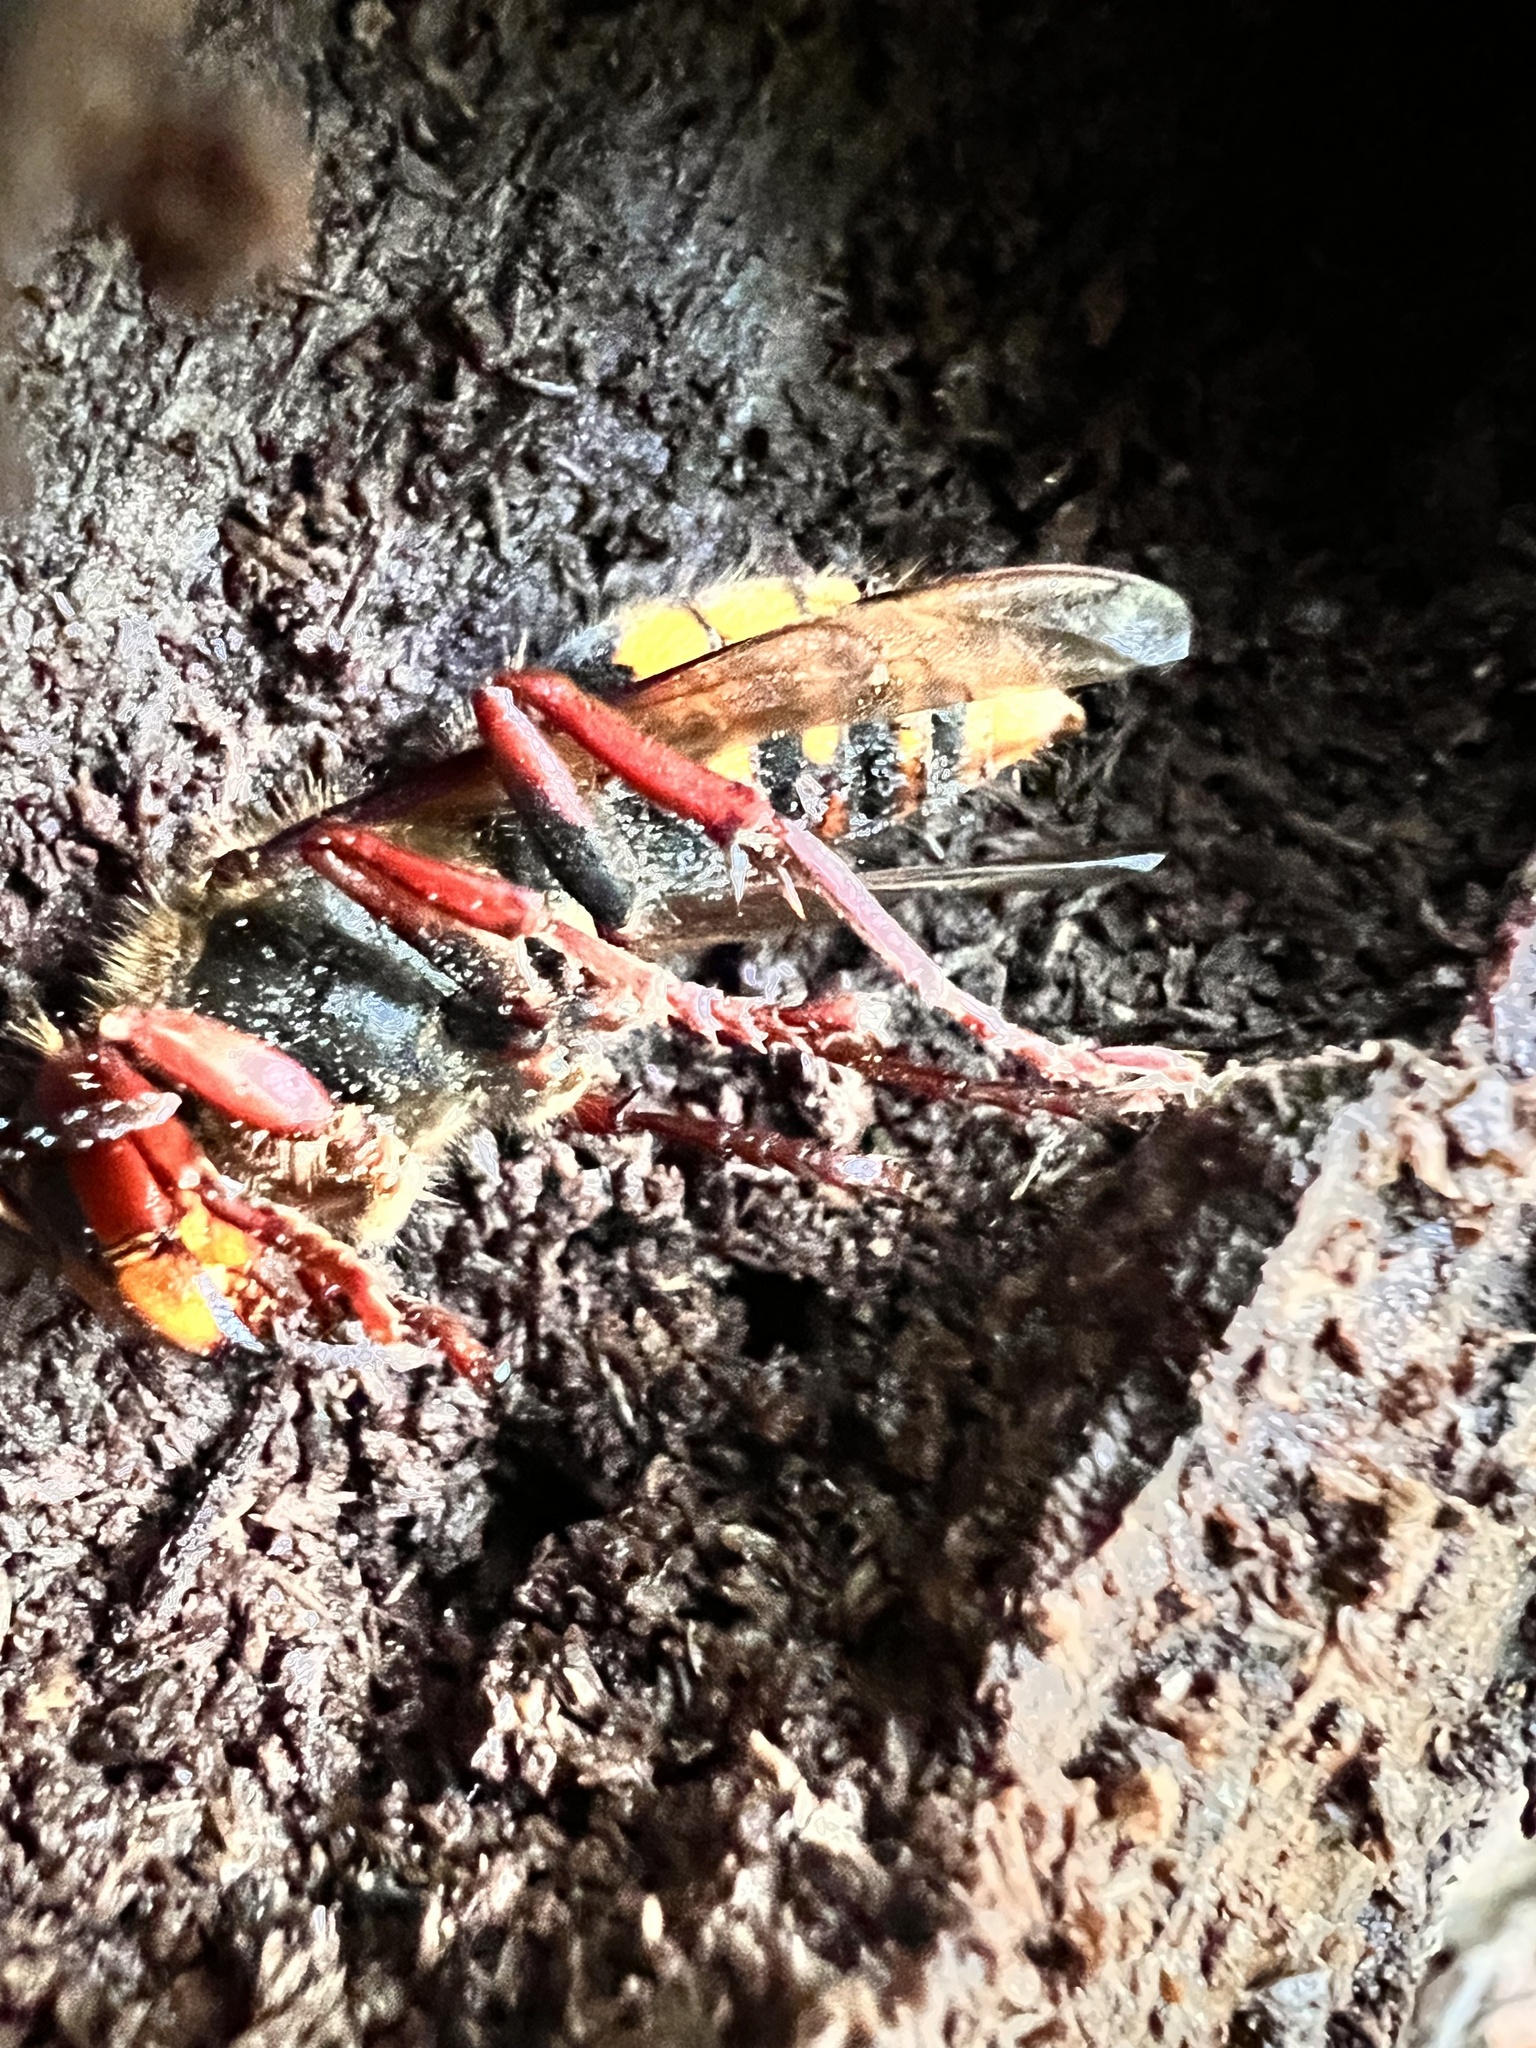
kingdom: Animalia
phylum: Arthropoda
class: Insecta
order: Hymenoptera
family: Vespidae
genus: Vespa
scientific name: Vespa crabro
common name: Hornet
